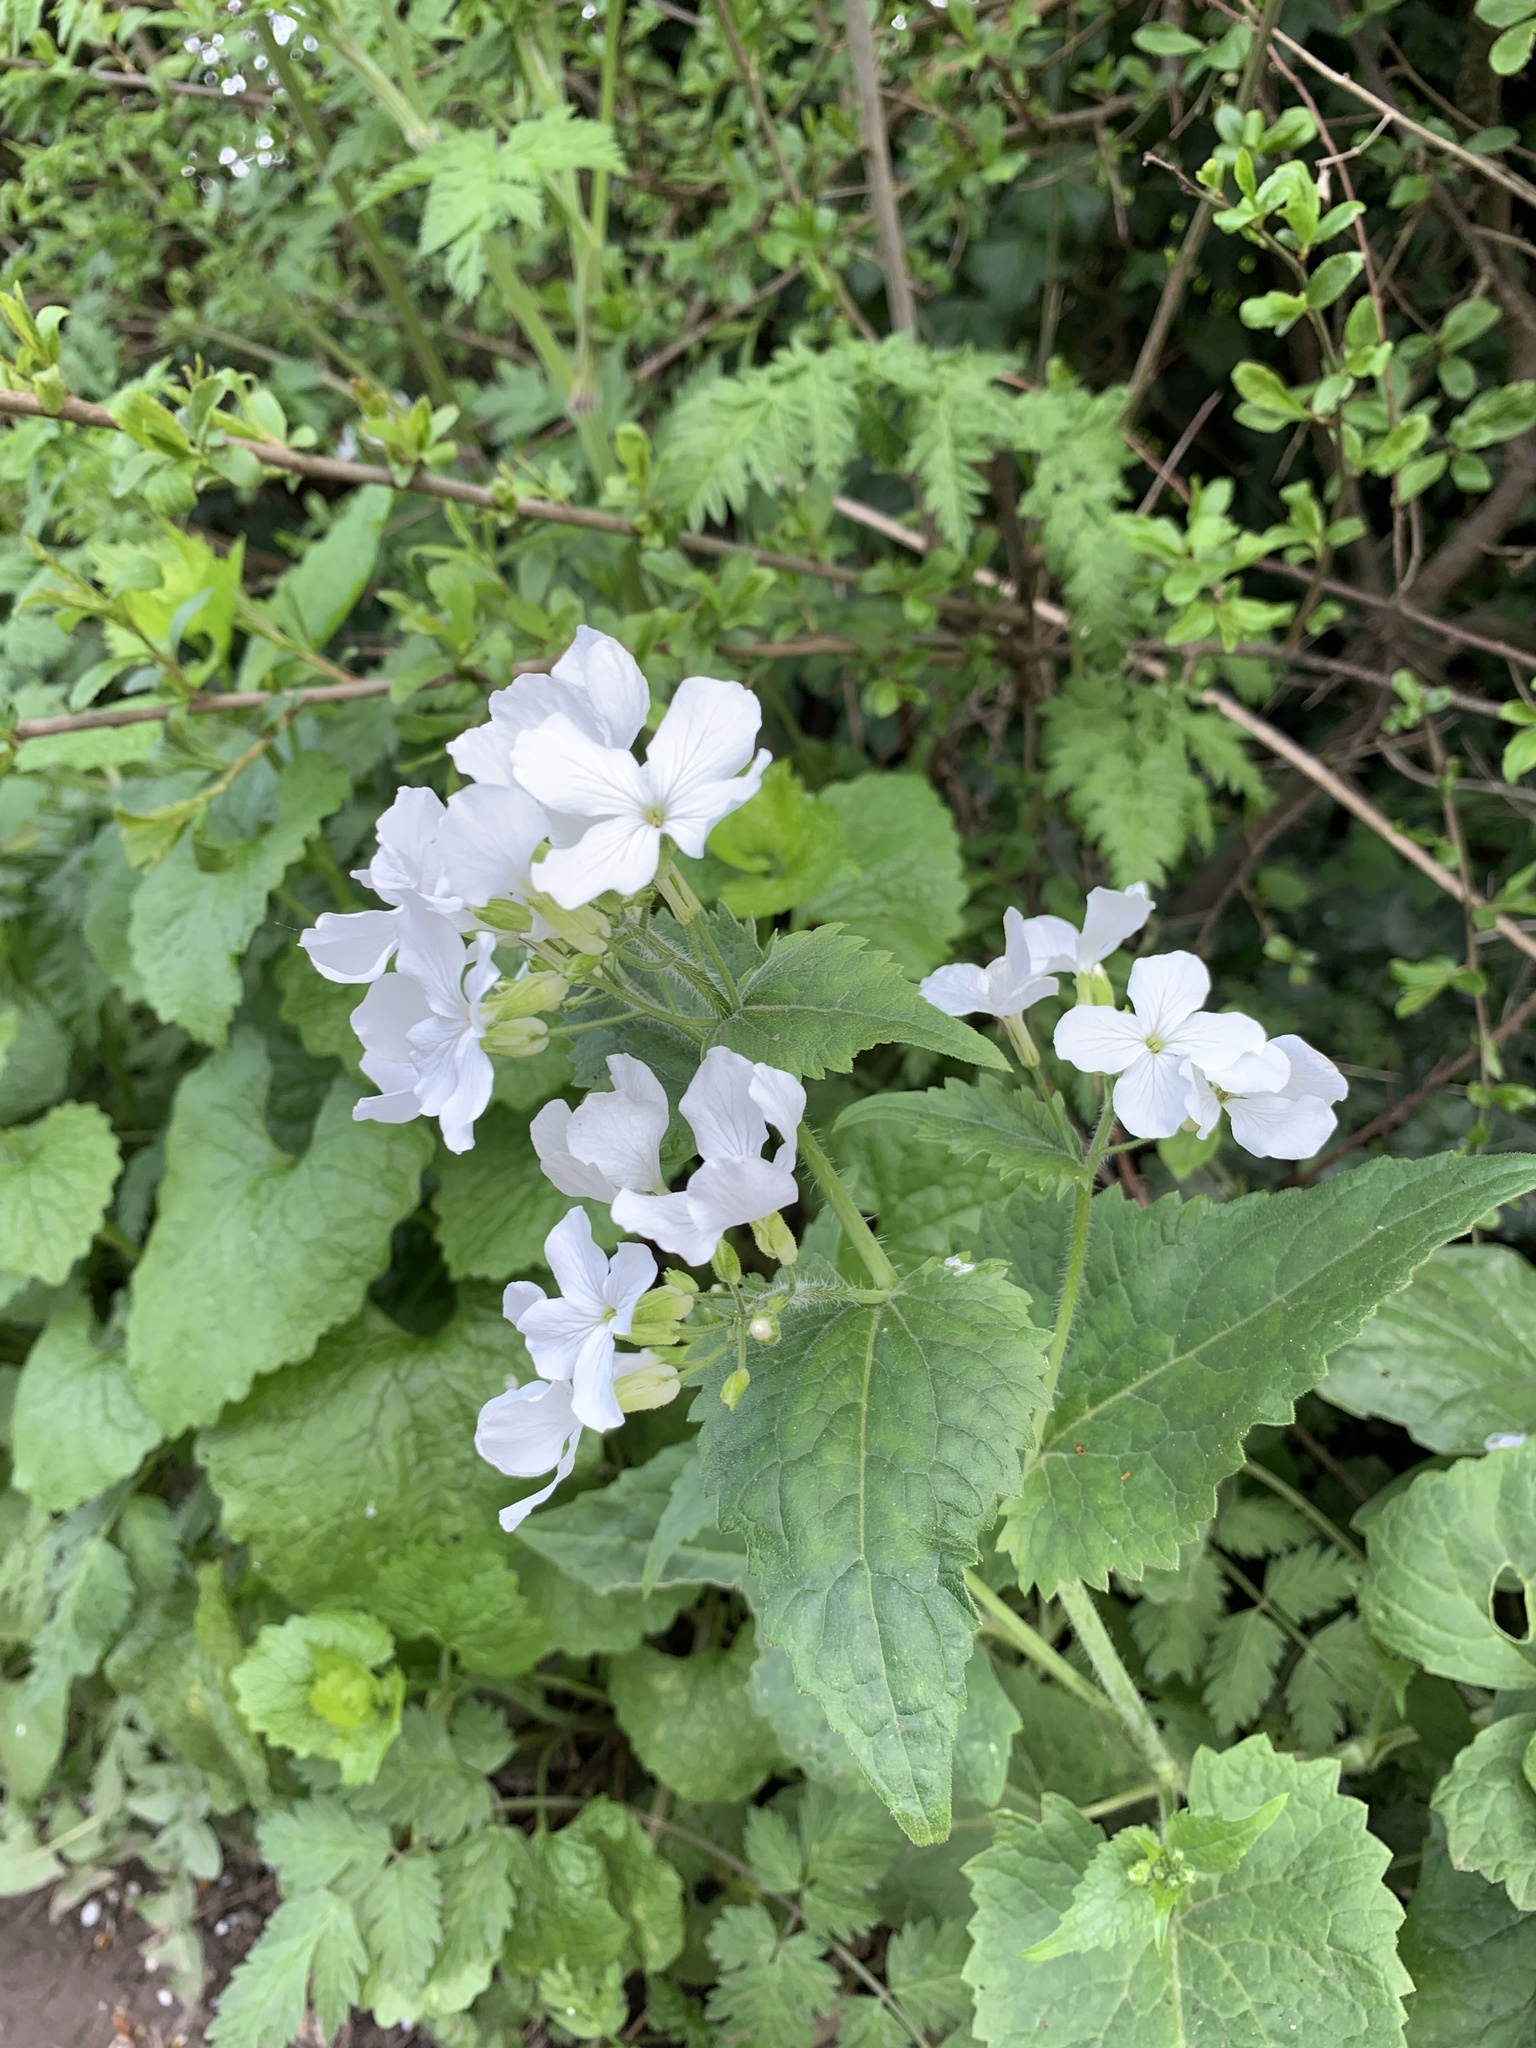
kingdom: Plantae
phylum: Tracheophyta
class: Magnoliopsida
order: Brassicales
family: Brassicaceae
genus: Lunaria
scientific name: Lunaria annua
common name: Honesty
